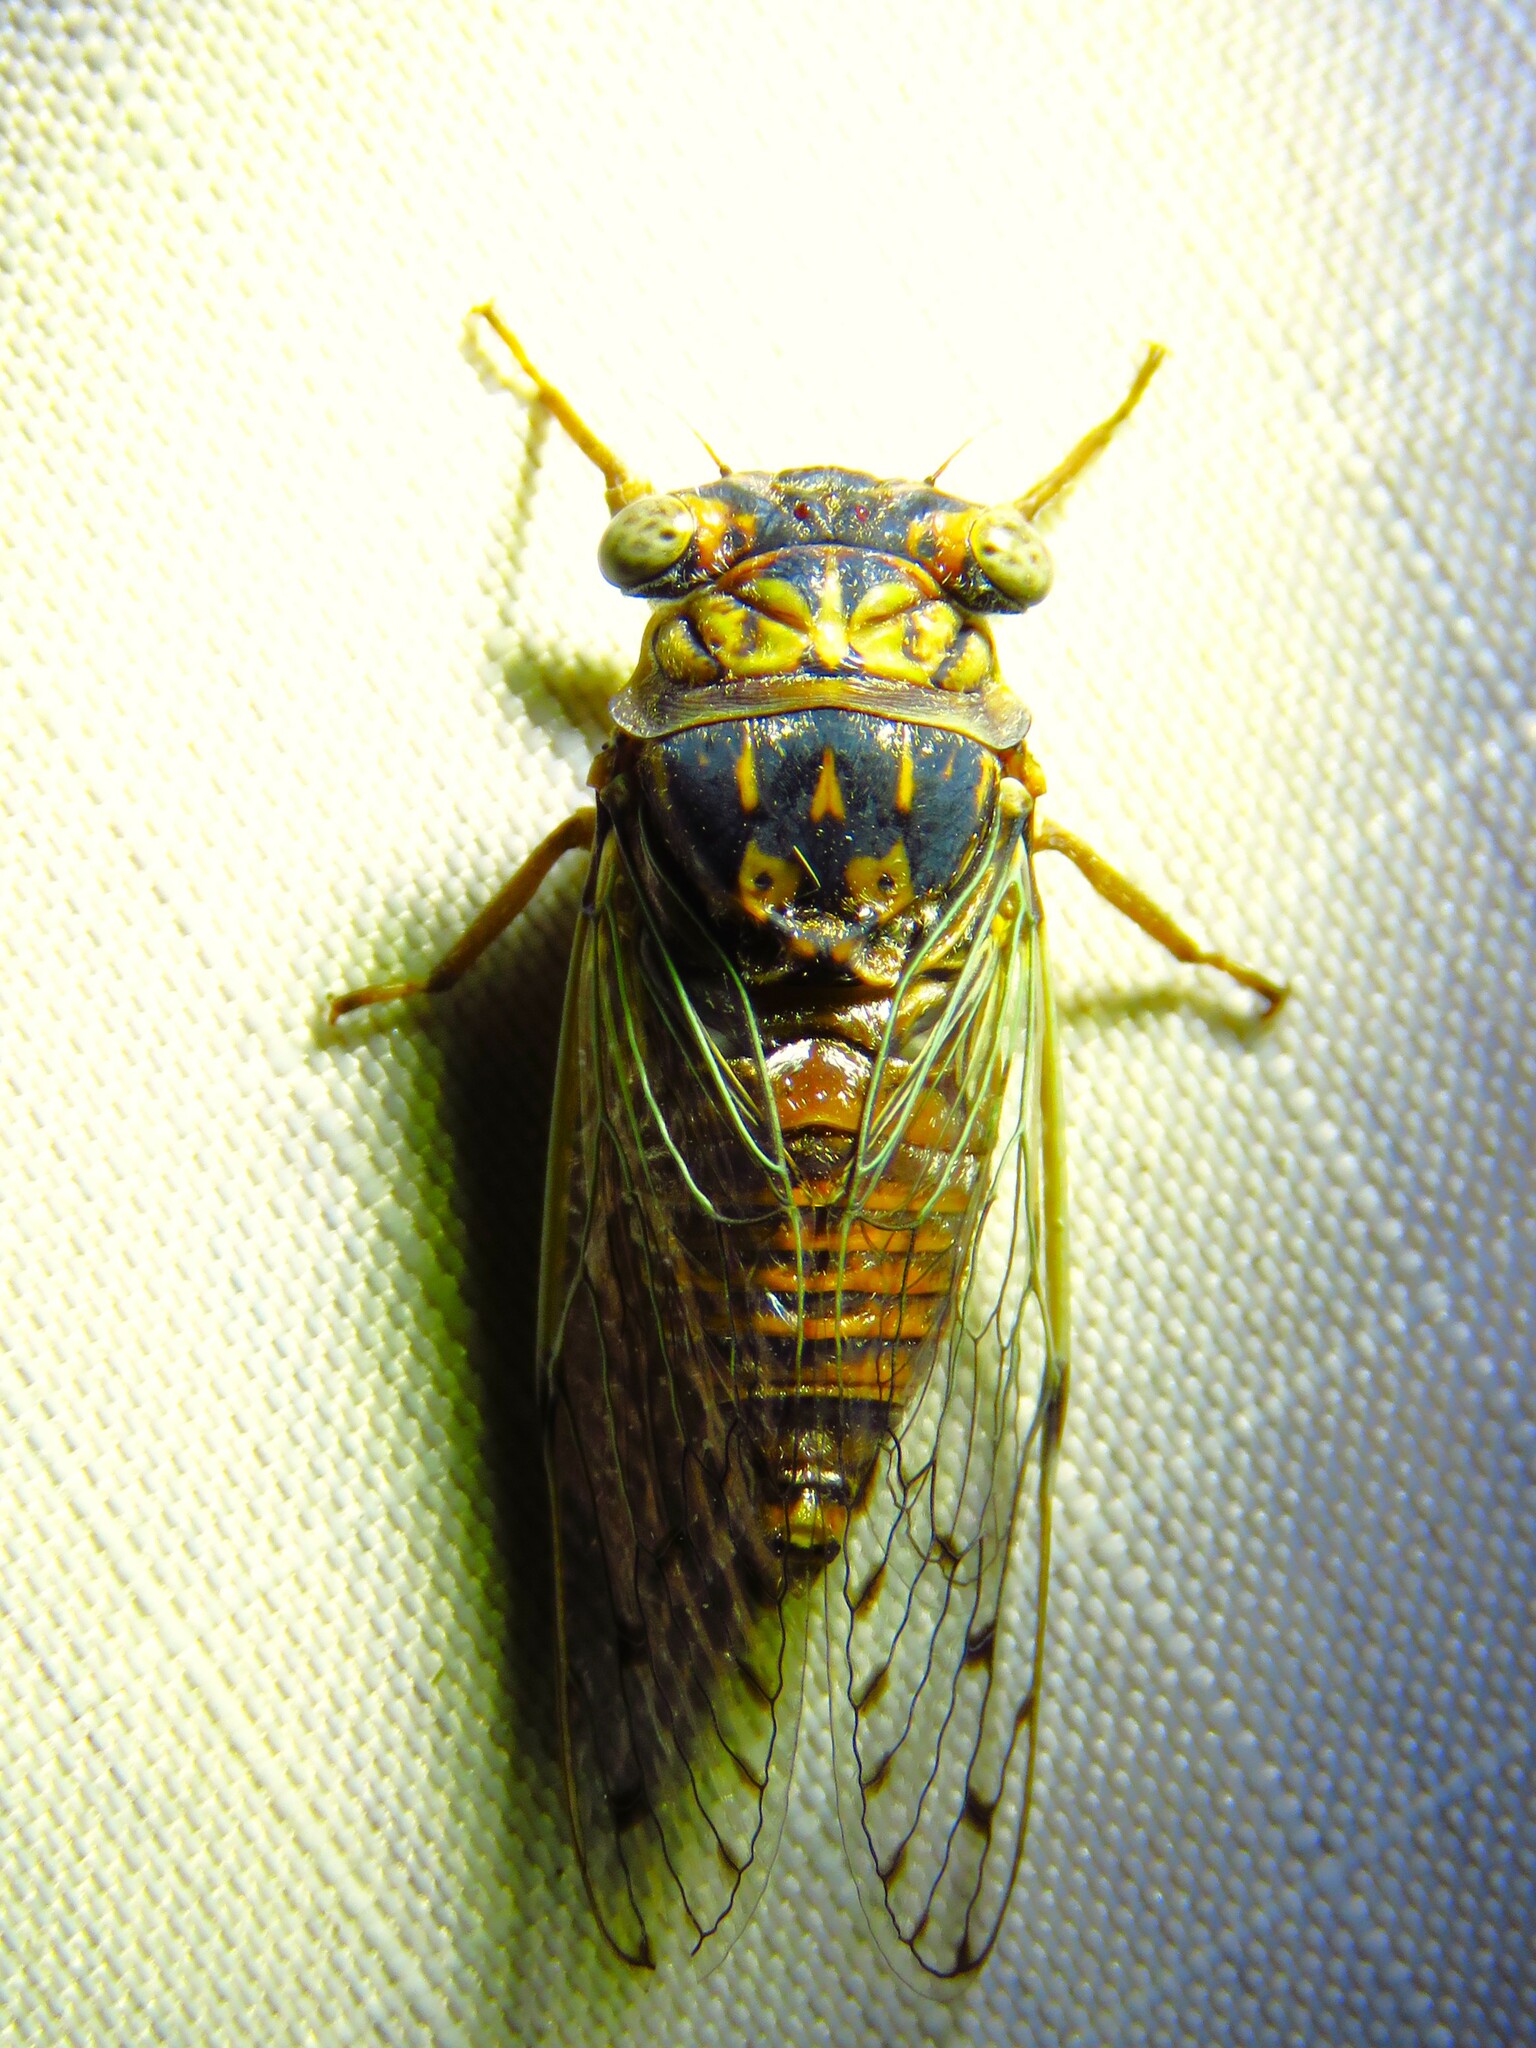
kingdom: Animalia
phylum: Arthropoda
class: Insecta
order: Hemiptera
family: Cicadidae
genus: Pacarina
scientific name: Pacarina puella
